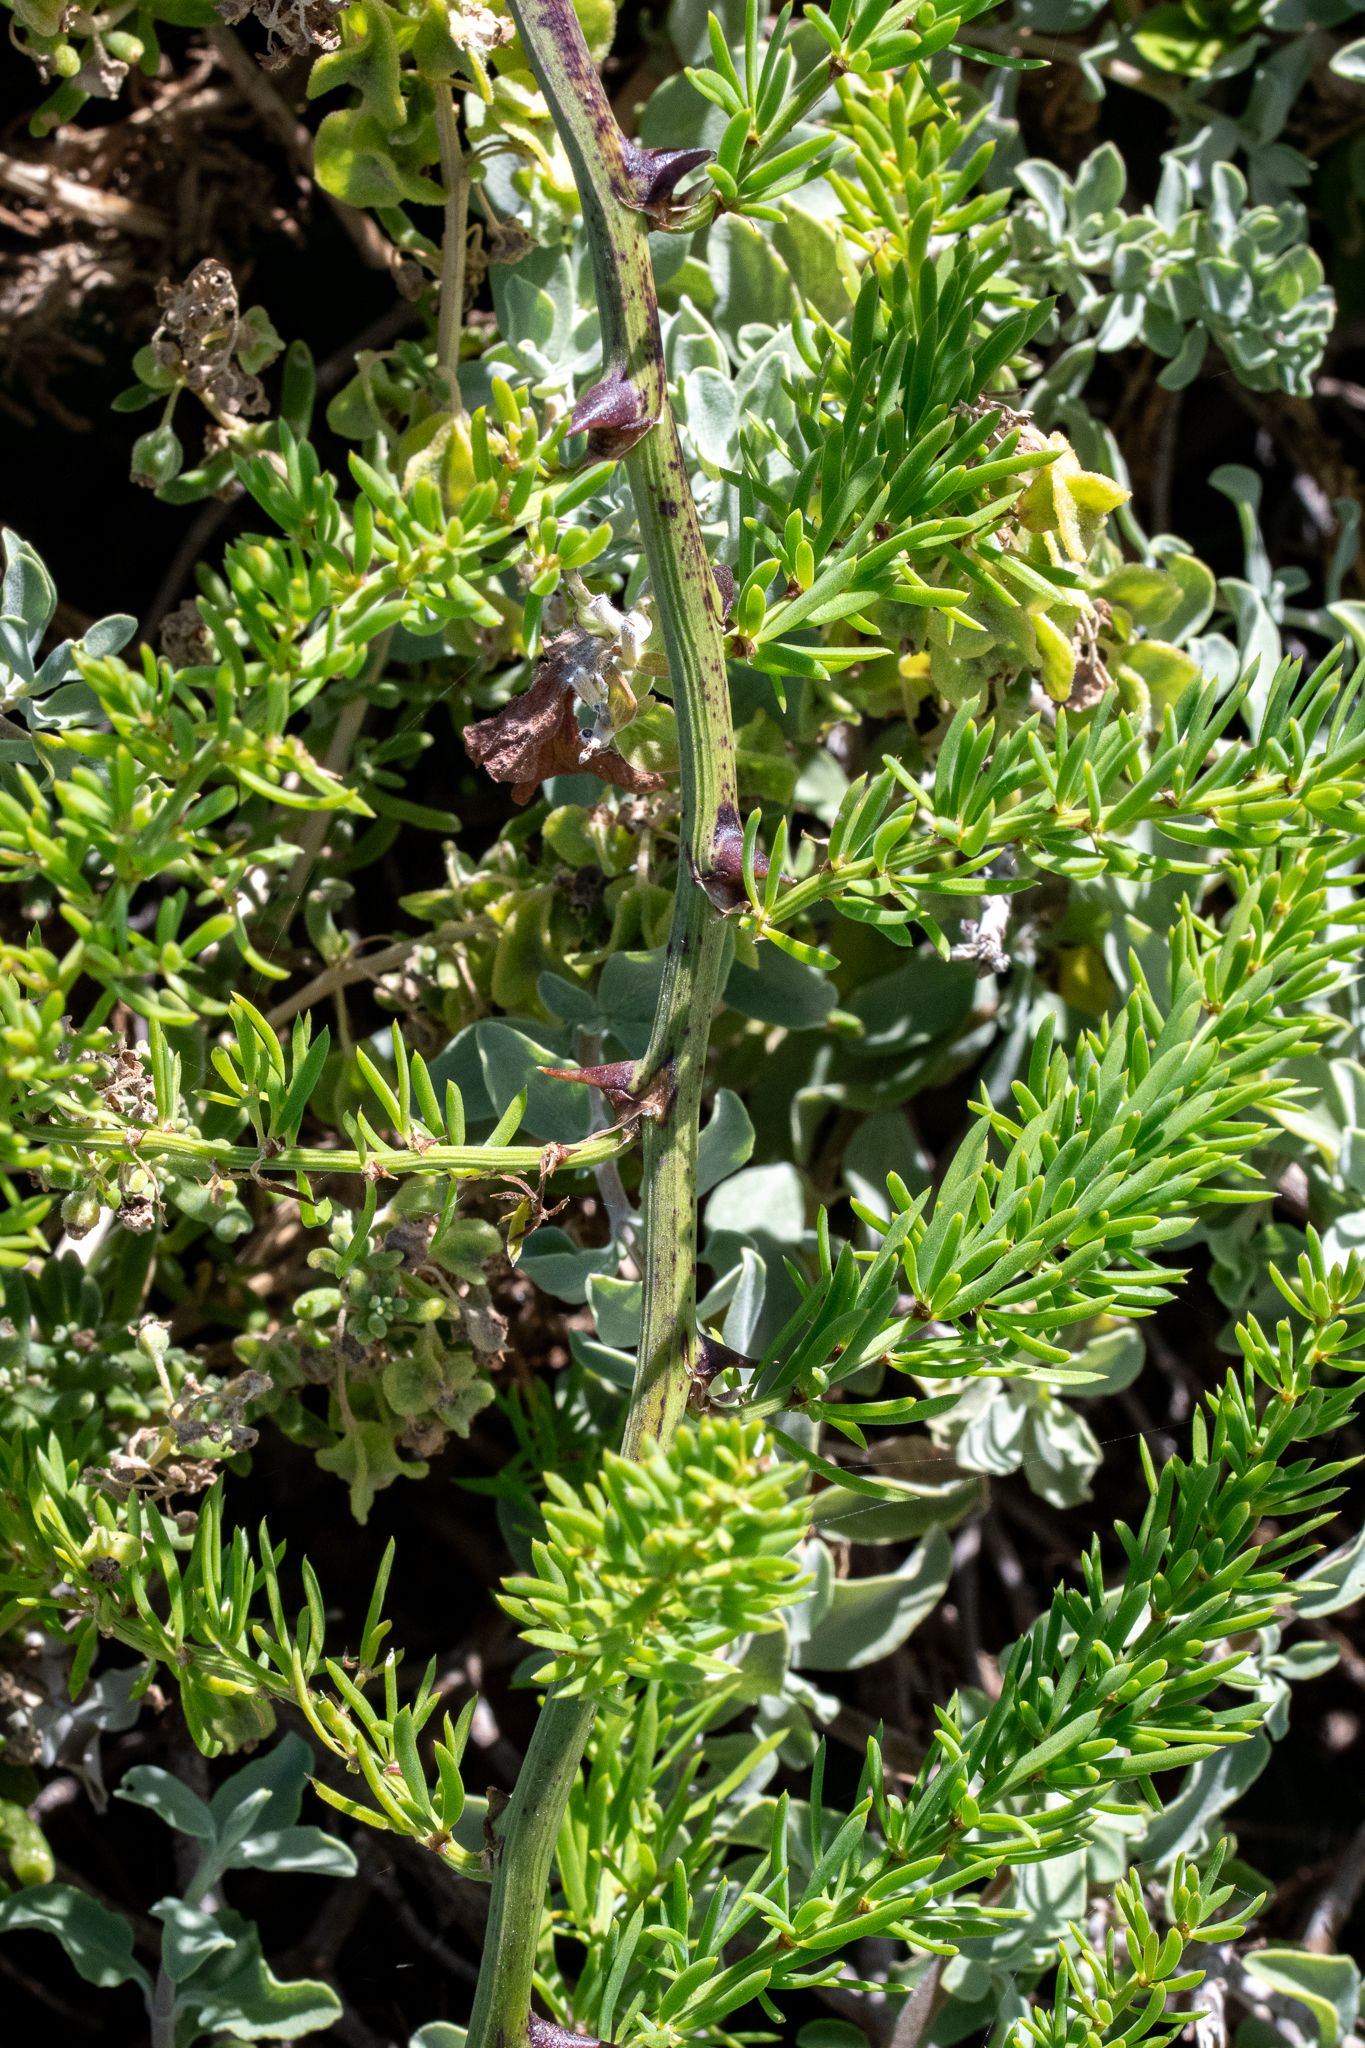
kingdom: Plantae
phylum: Tracheophyta
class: Liliopsida
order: Asparagales
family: Asparagaceae
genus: Asparagus
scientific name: Asparagus aethiopicus
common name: Sprenger's asparagus fern
